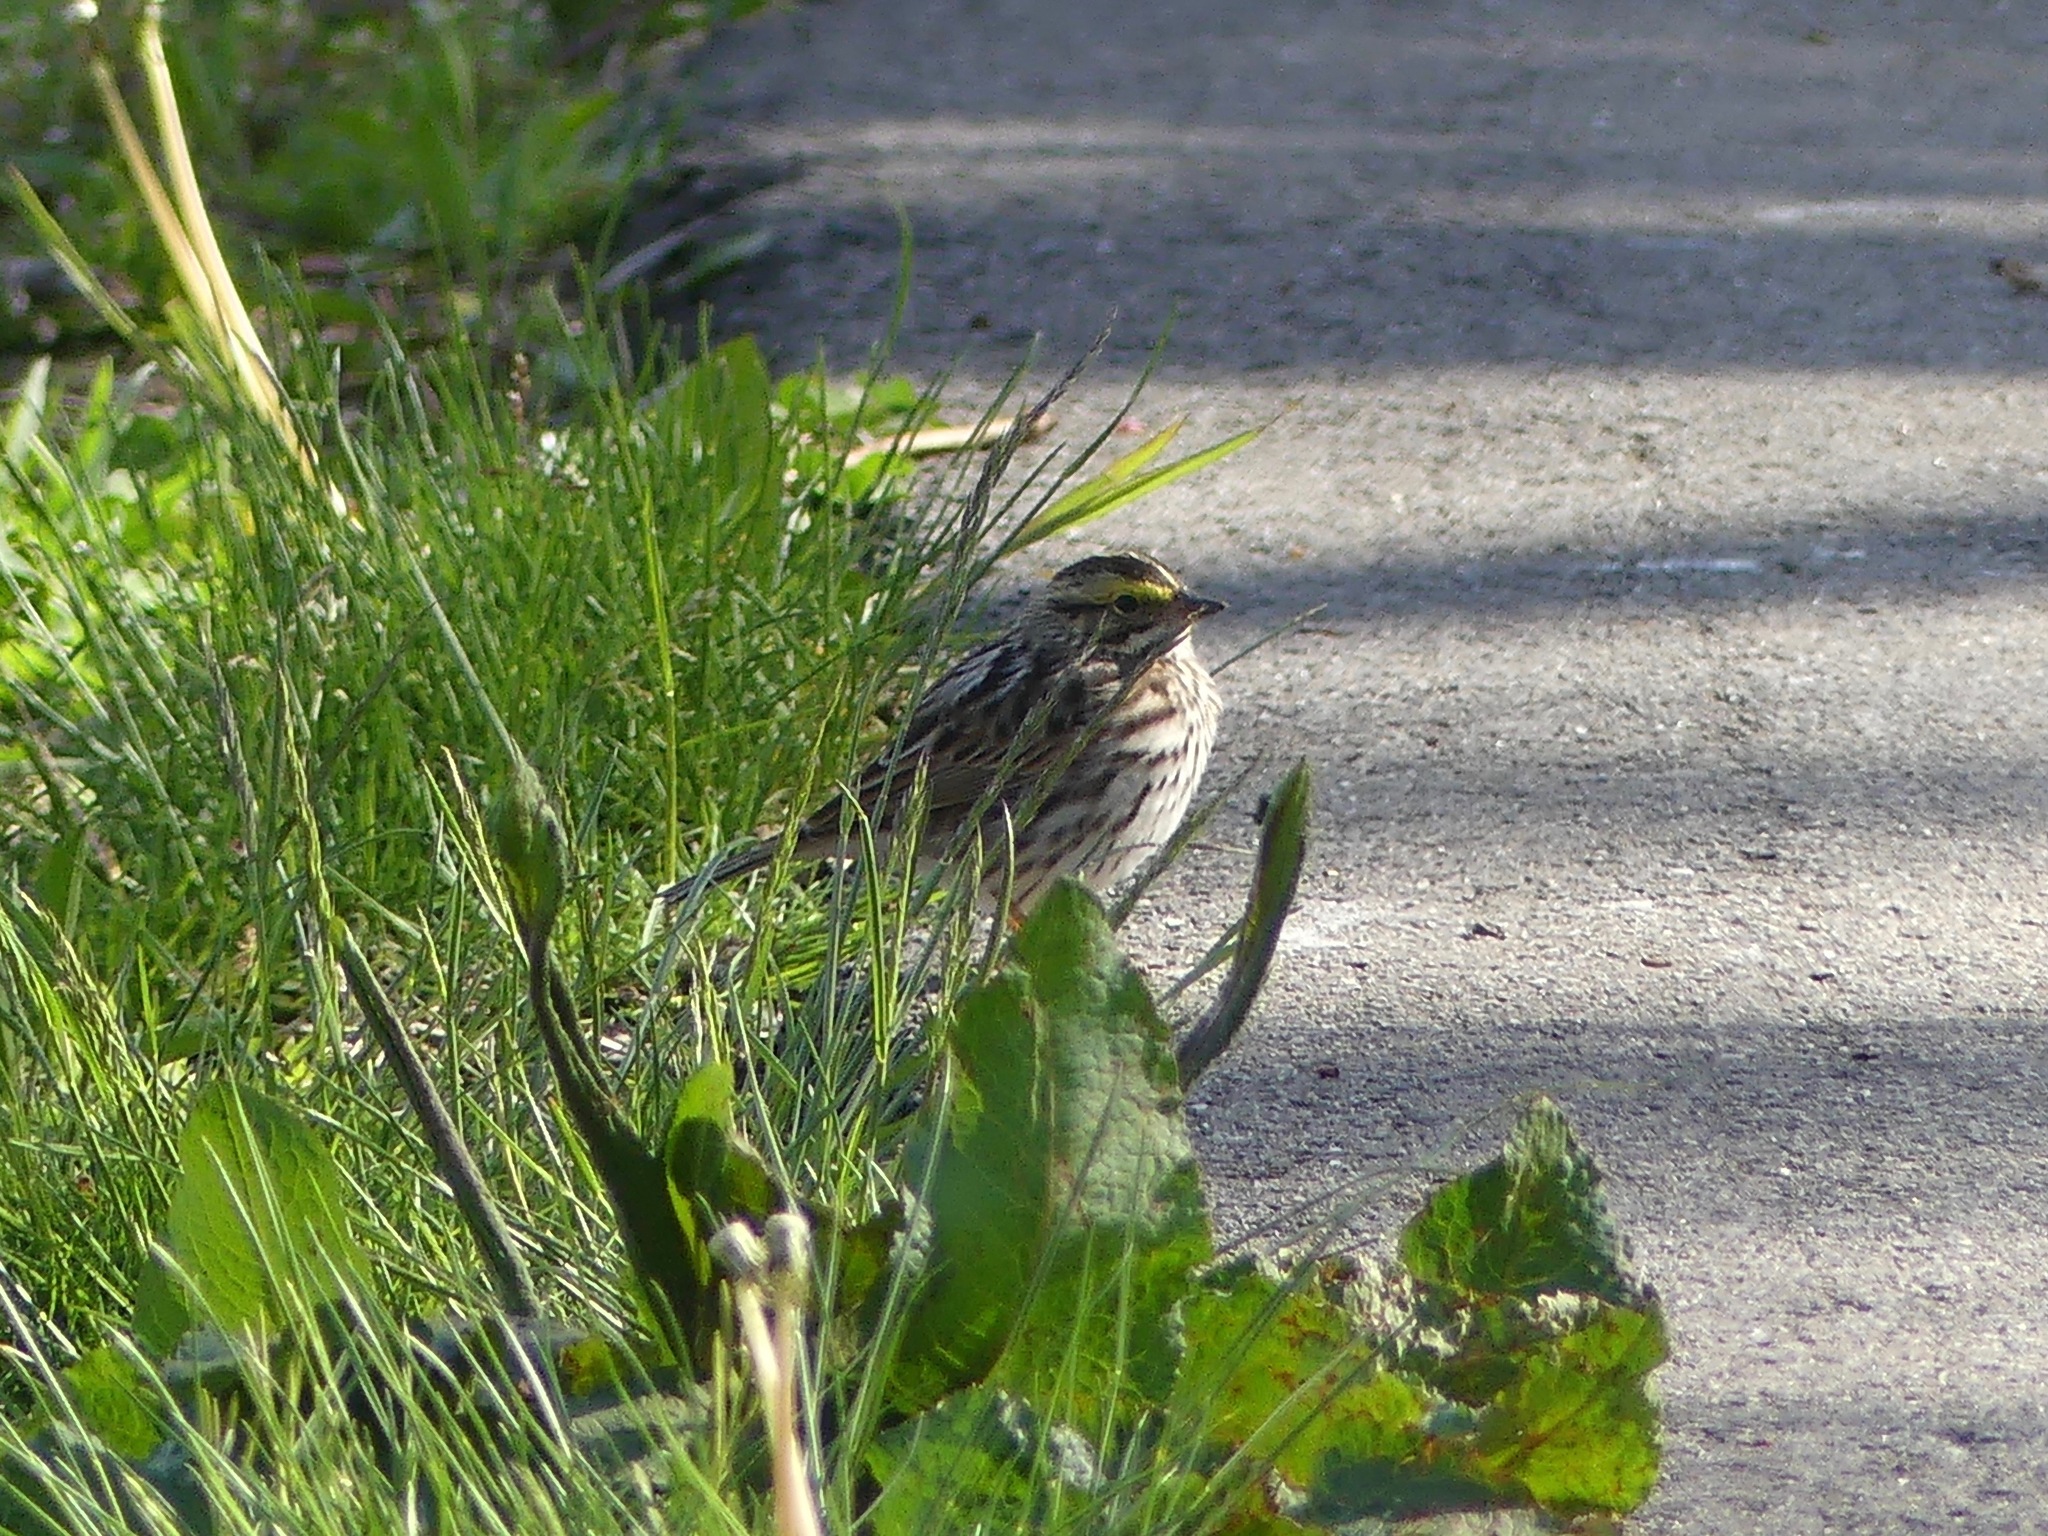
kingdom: Animalia
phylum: Chordata
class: Aves
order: Passeriformes
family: Passerellidae
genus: Passerculus
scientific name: Passerculus sandwichensis
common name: Savannah sparrow
